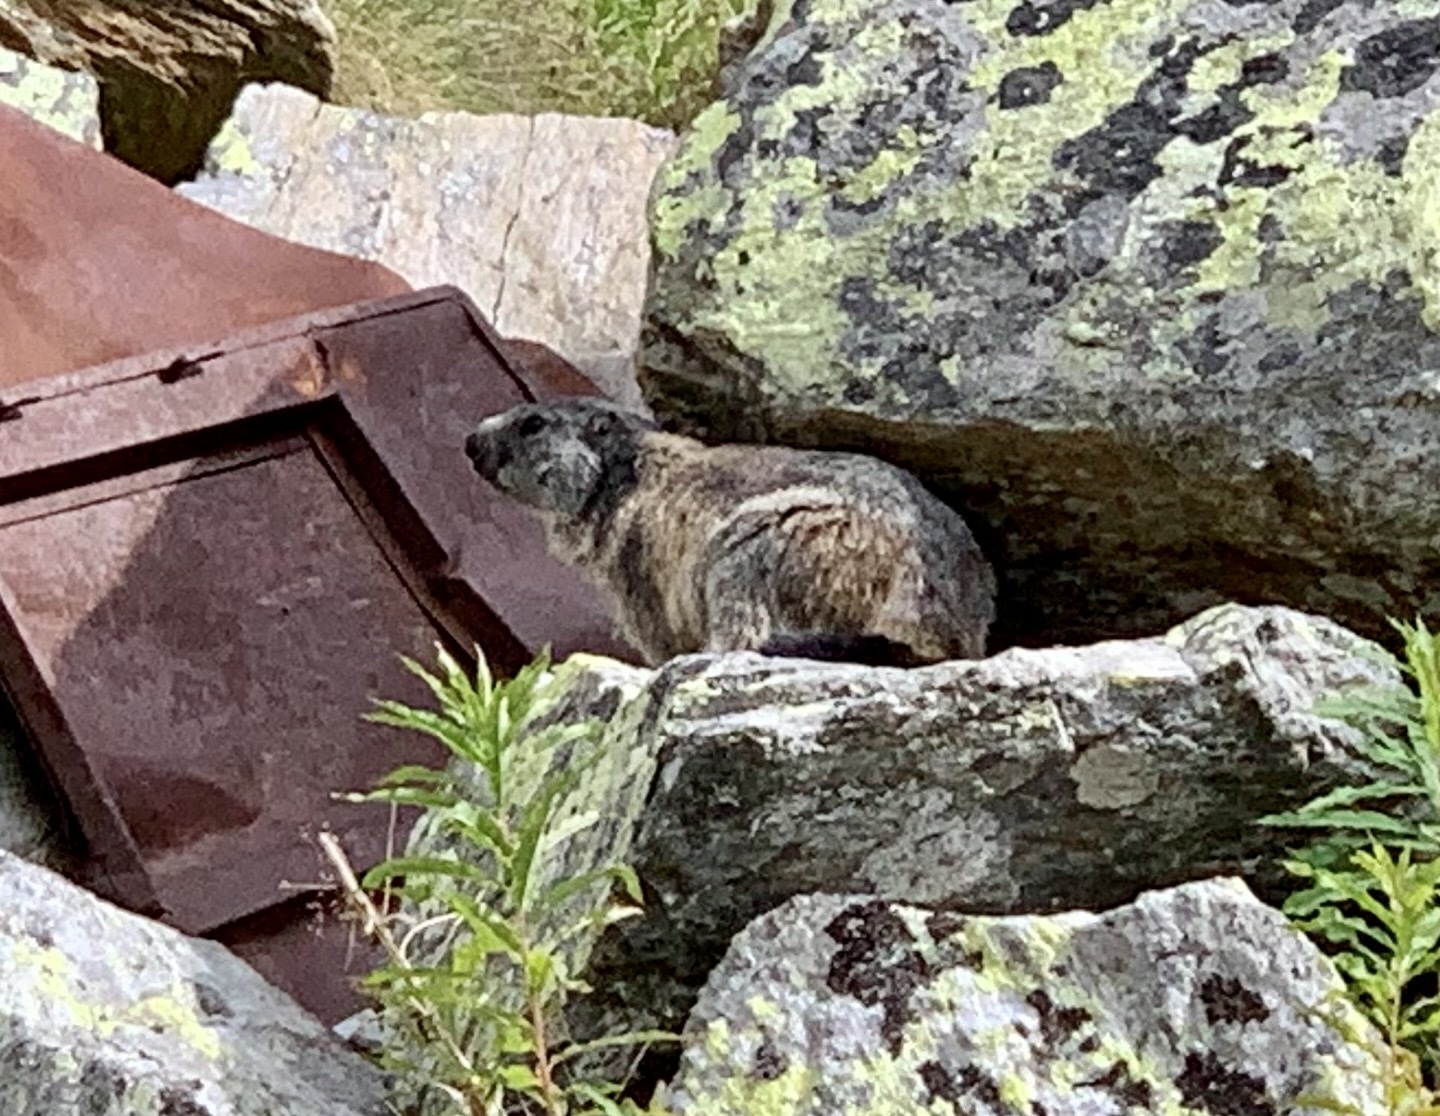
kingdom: Animalia
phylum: Chordata
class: Mammalia
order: Rodentia
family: Sciuridae
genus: Marmota
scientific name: Marmota marmota
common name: Alpine marmot
